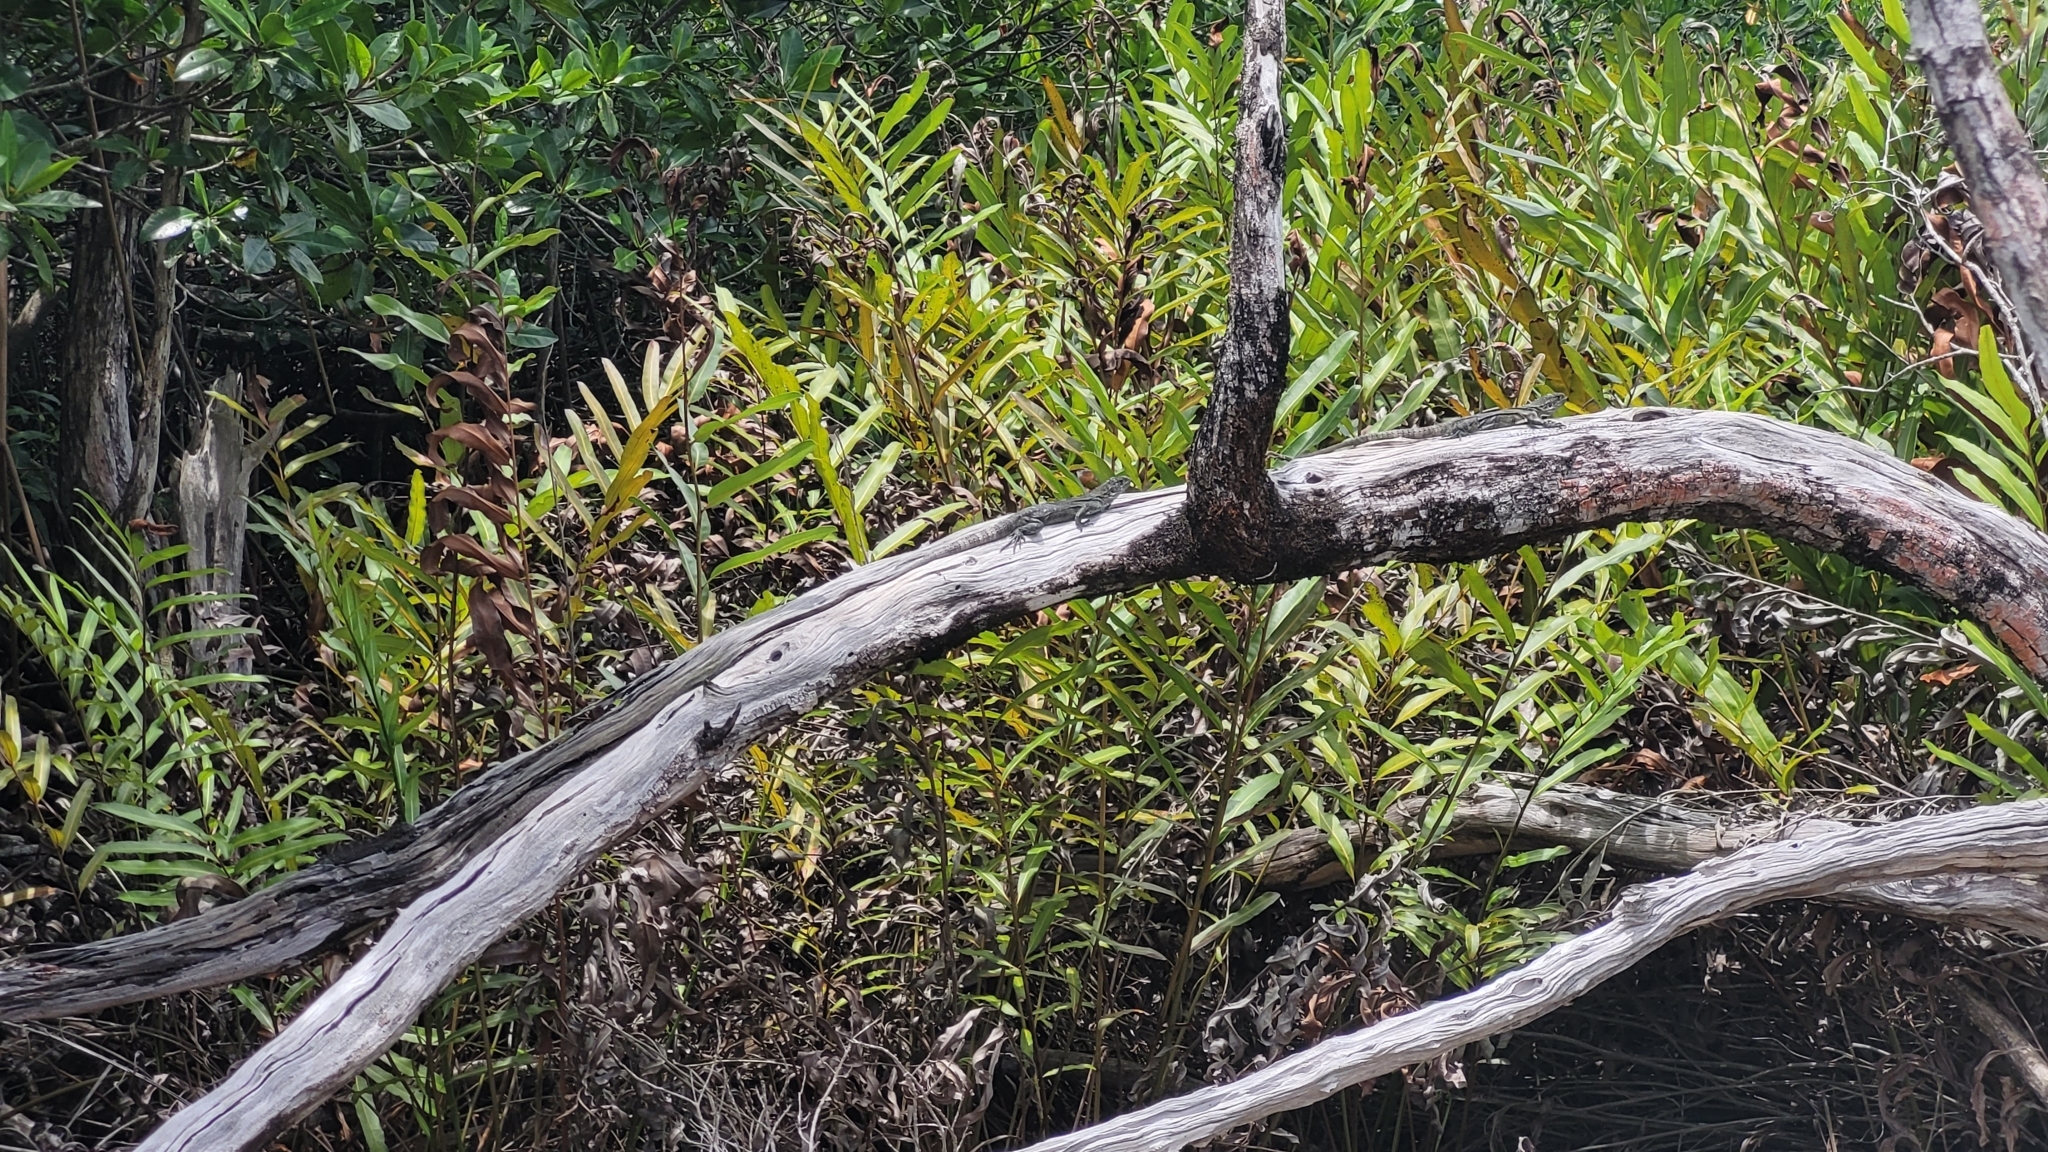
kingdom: Animalia
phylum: Chordata
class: Squamata
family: Iguanidae
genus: Ctenosaura
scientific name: Ctenosaura bakeri
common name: Utila spiny-tailed iguana
